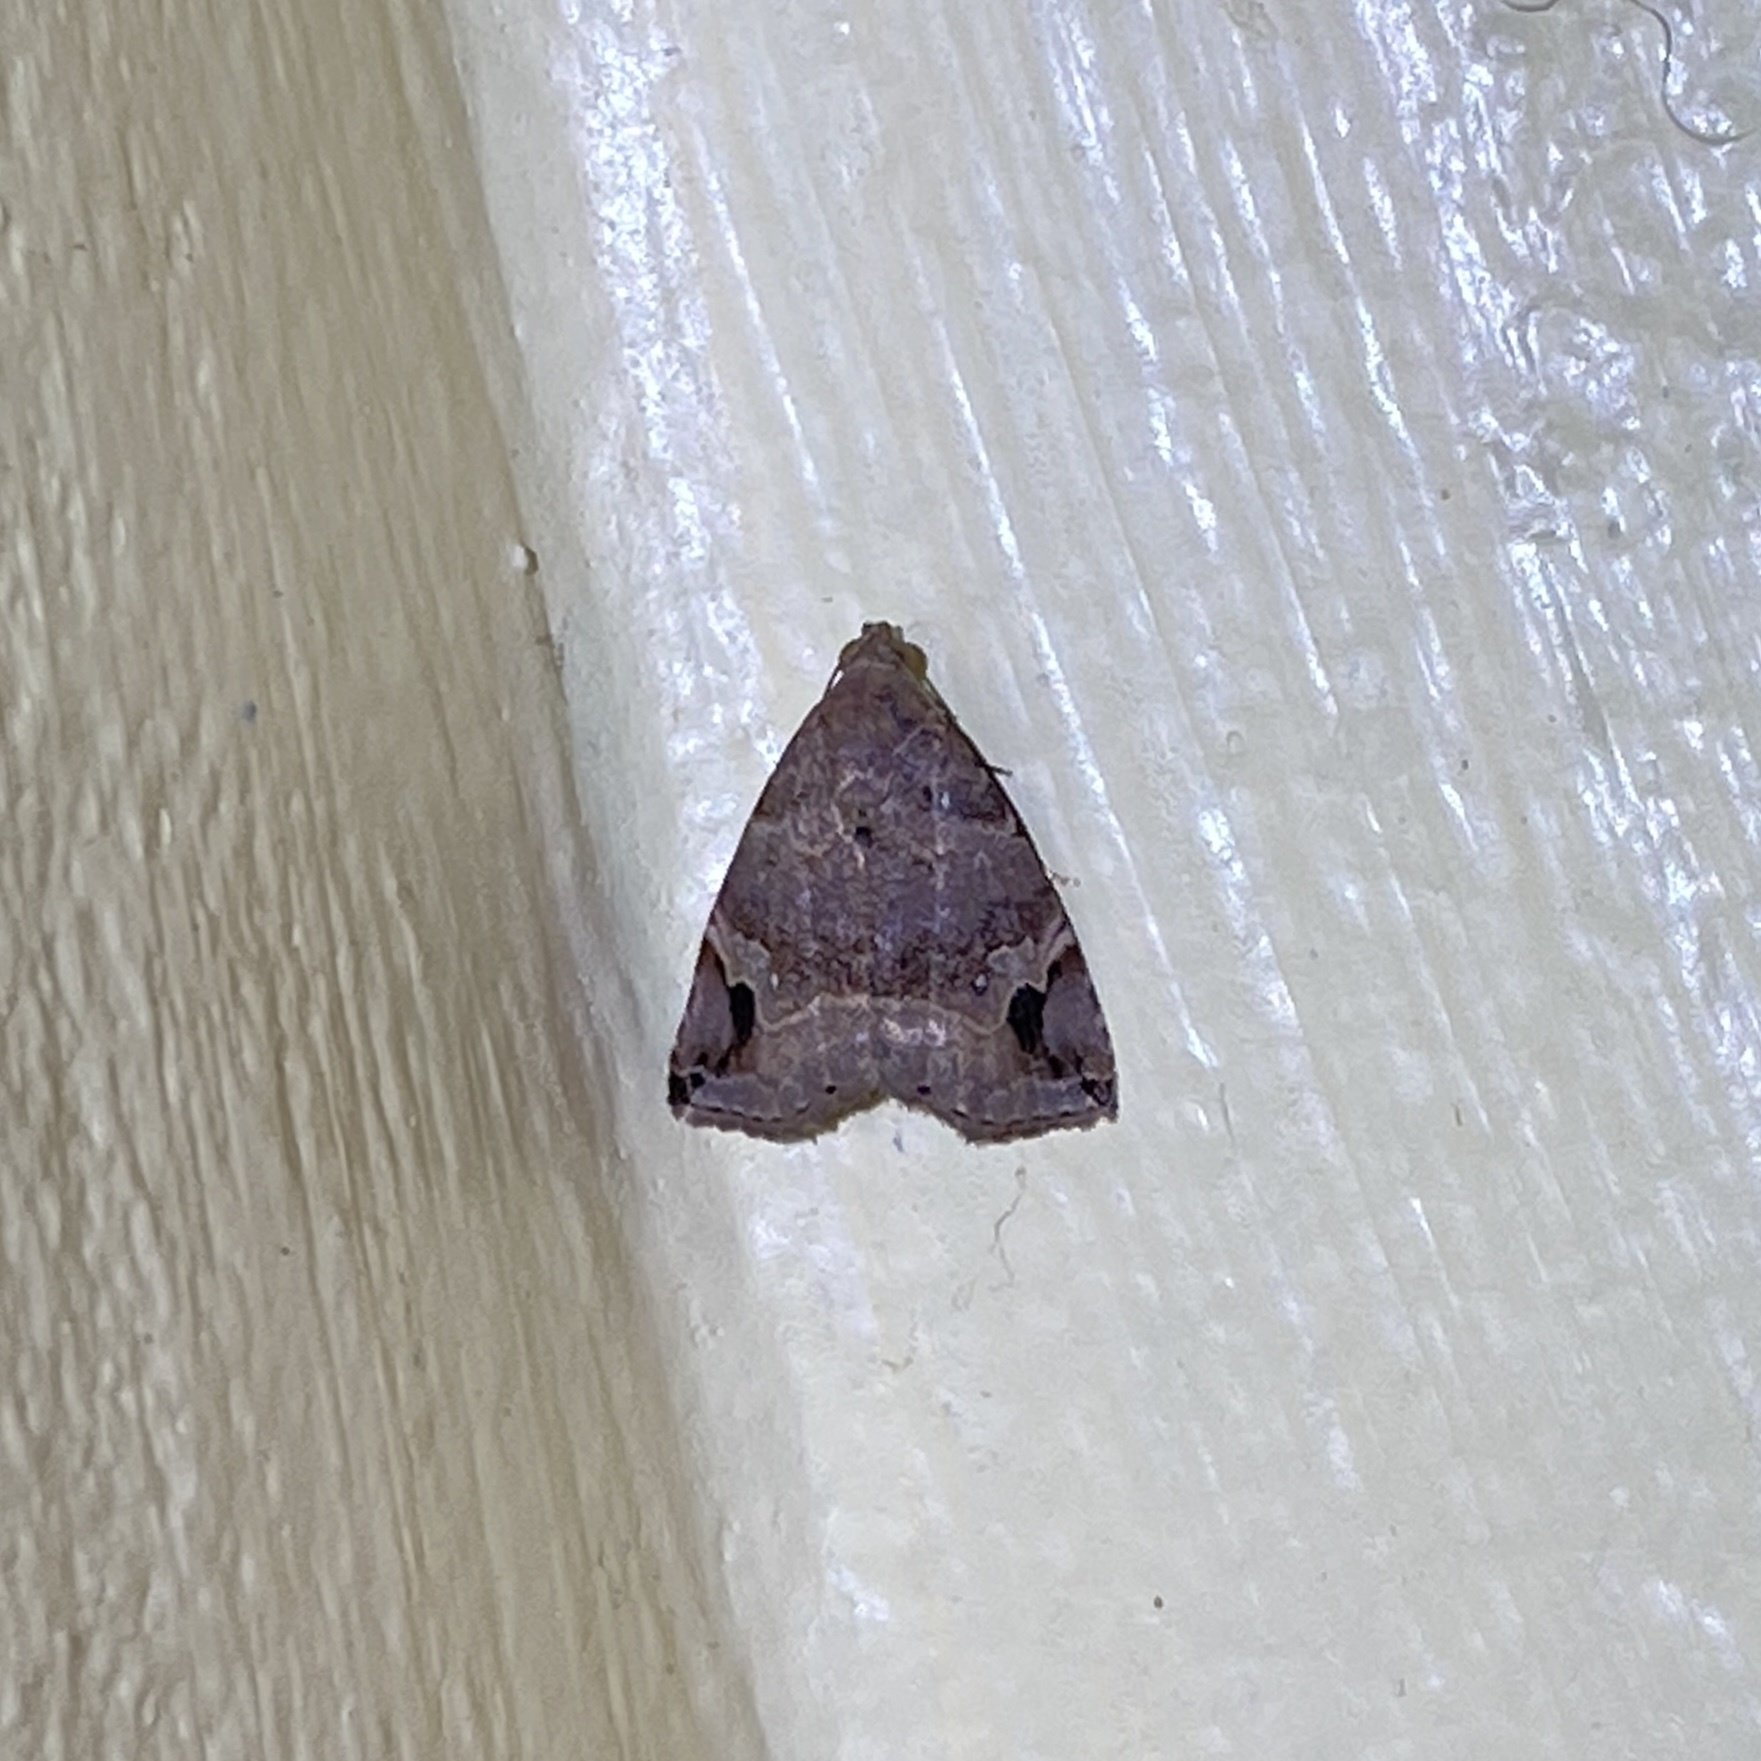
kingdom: Animalia
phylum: Arthropoda
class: Insecta
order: Lepidoptera
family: Noctuidae
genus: Ozarba
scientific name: Ozarba melanodonta
